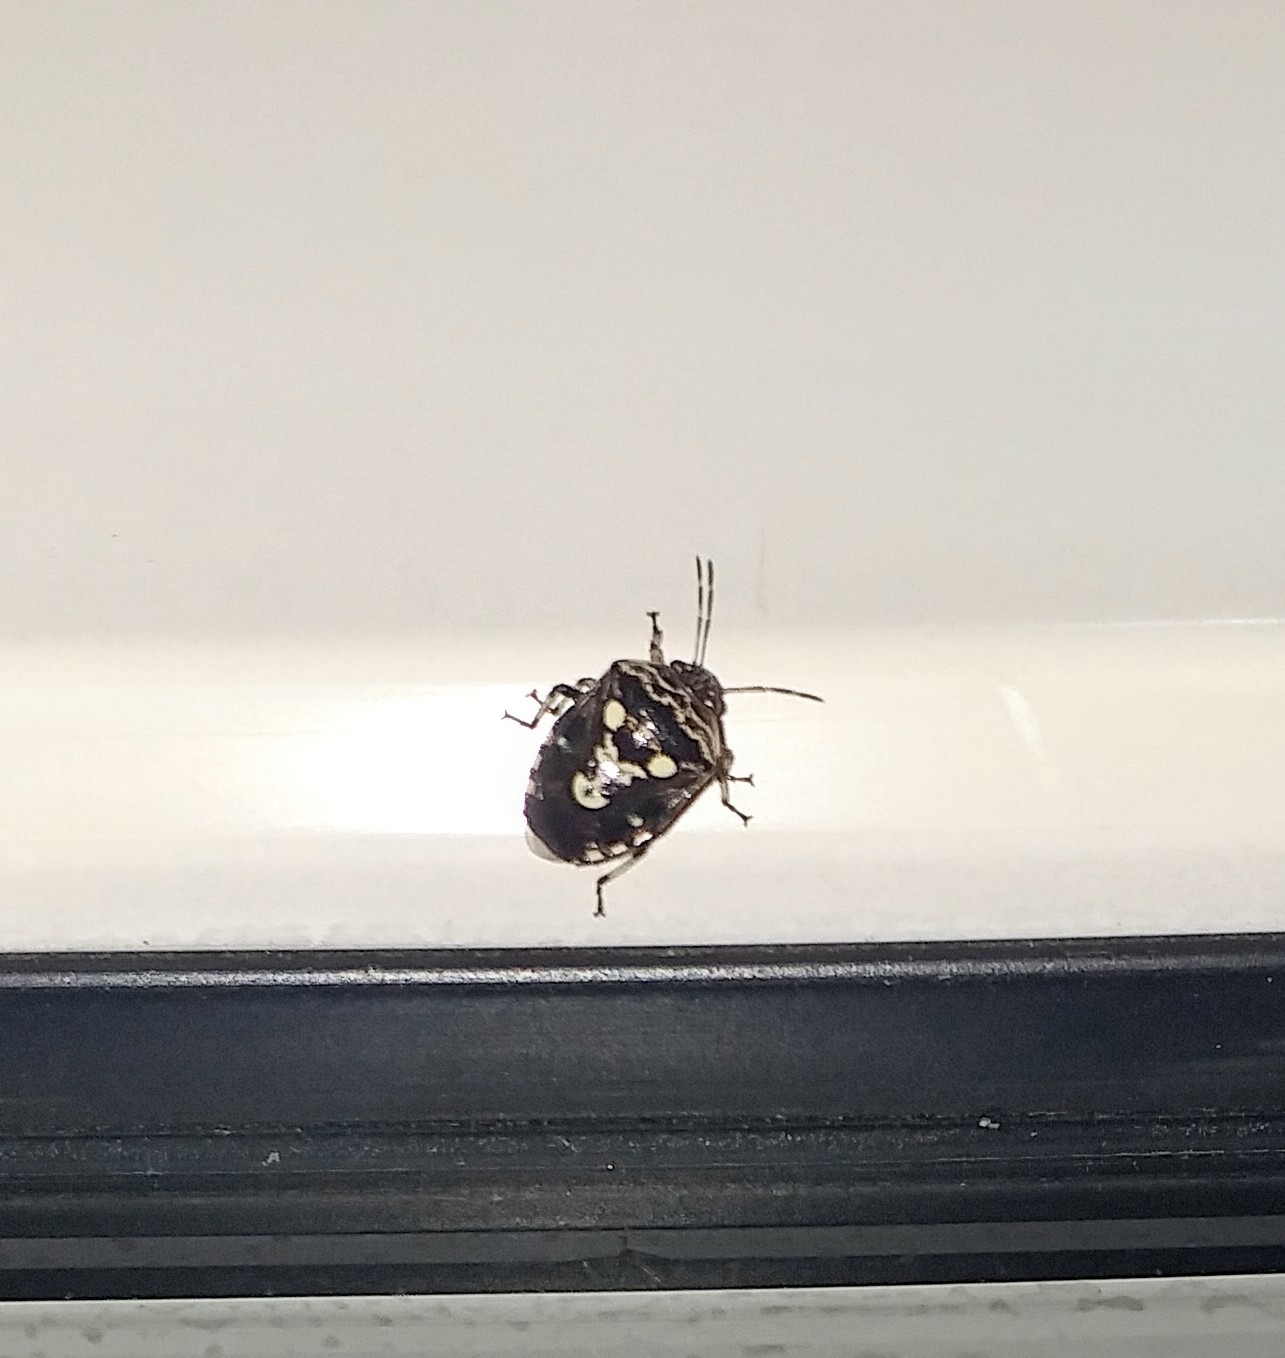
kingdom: Animalia
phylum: Arthropoda
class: Insecta
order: Hemiptera
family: Pentatomidae
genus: Menida
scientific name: Menida formosa
